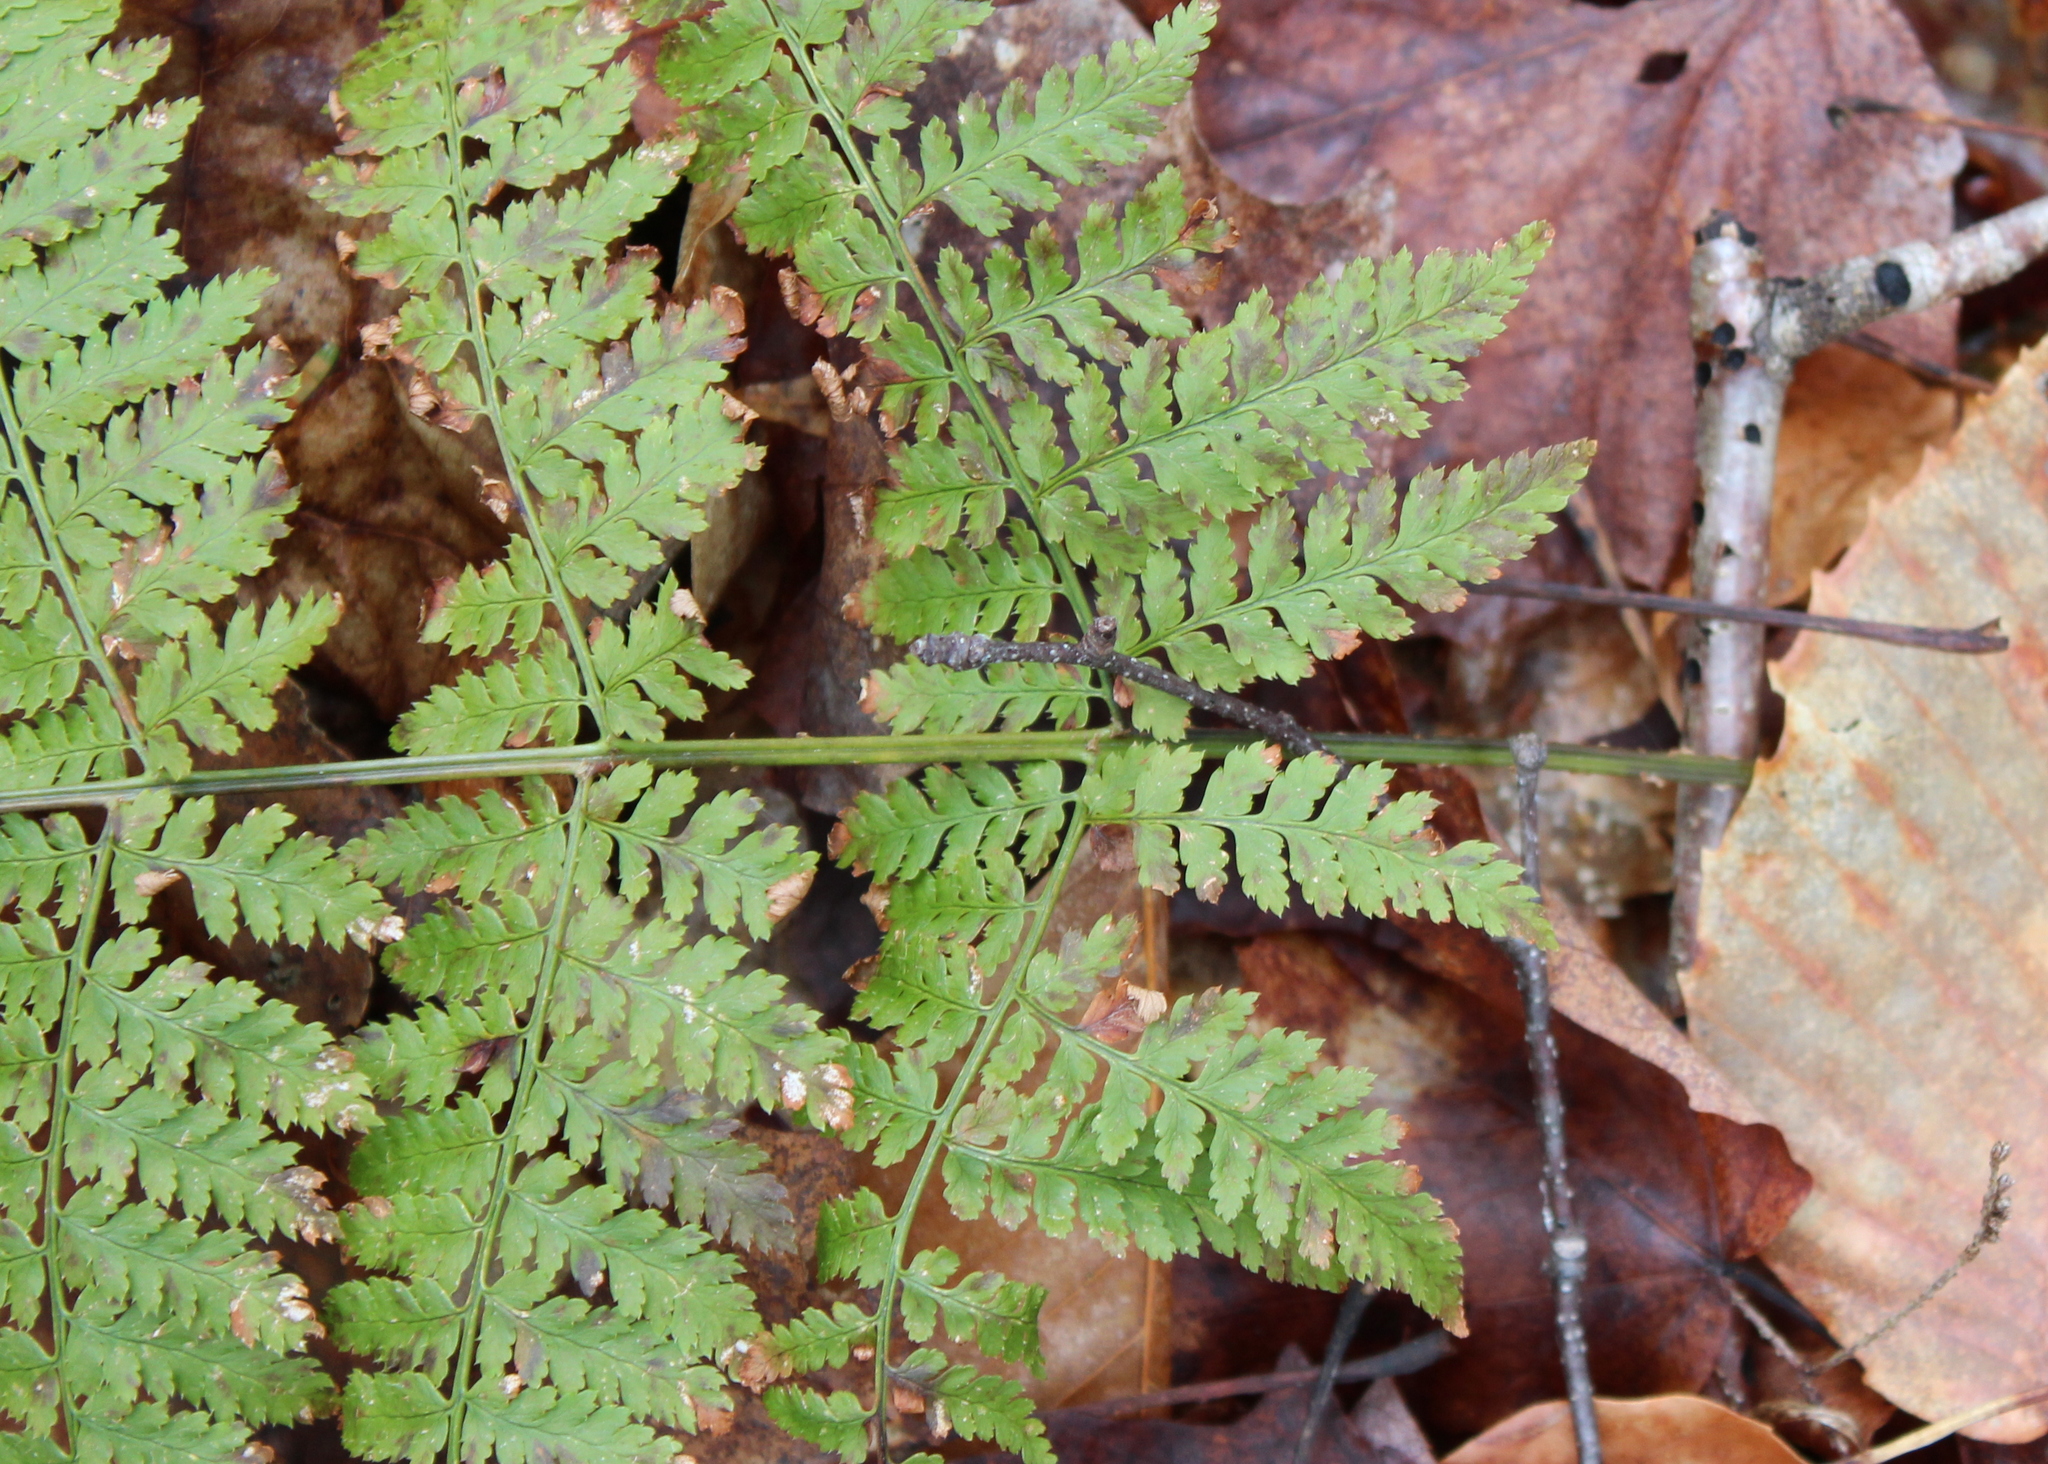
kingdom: Plantae
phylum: Tracheophyta
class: Polypodiopsida
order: Polypodiales
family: Dryopteridaceae
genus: Dryopteris
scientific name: Dryopteris intermedia
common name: Evergreen wood fern
